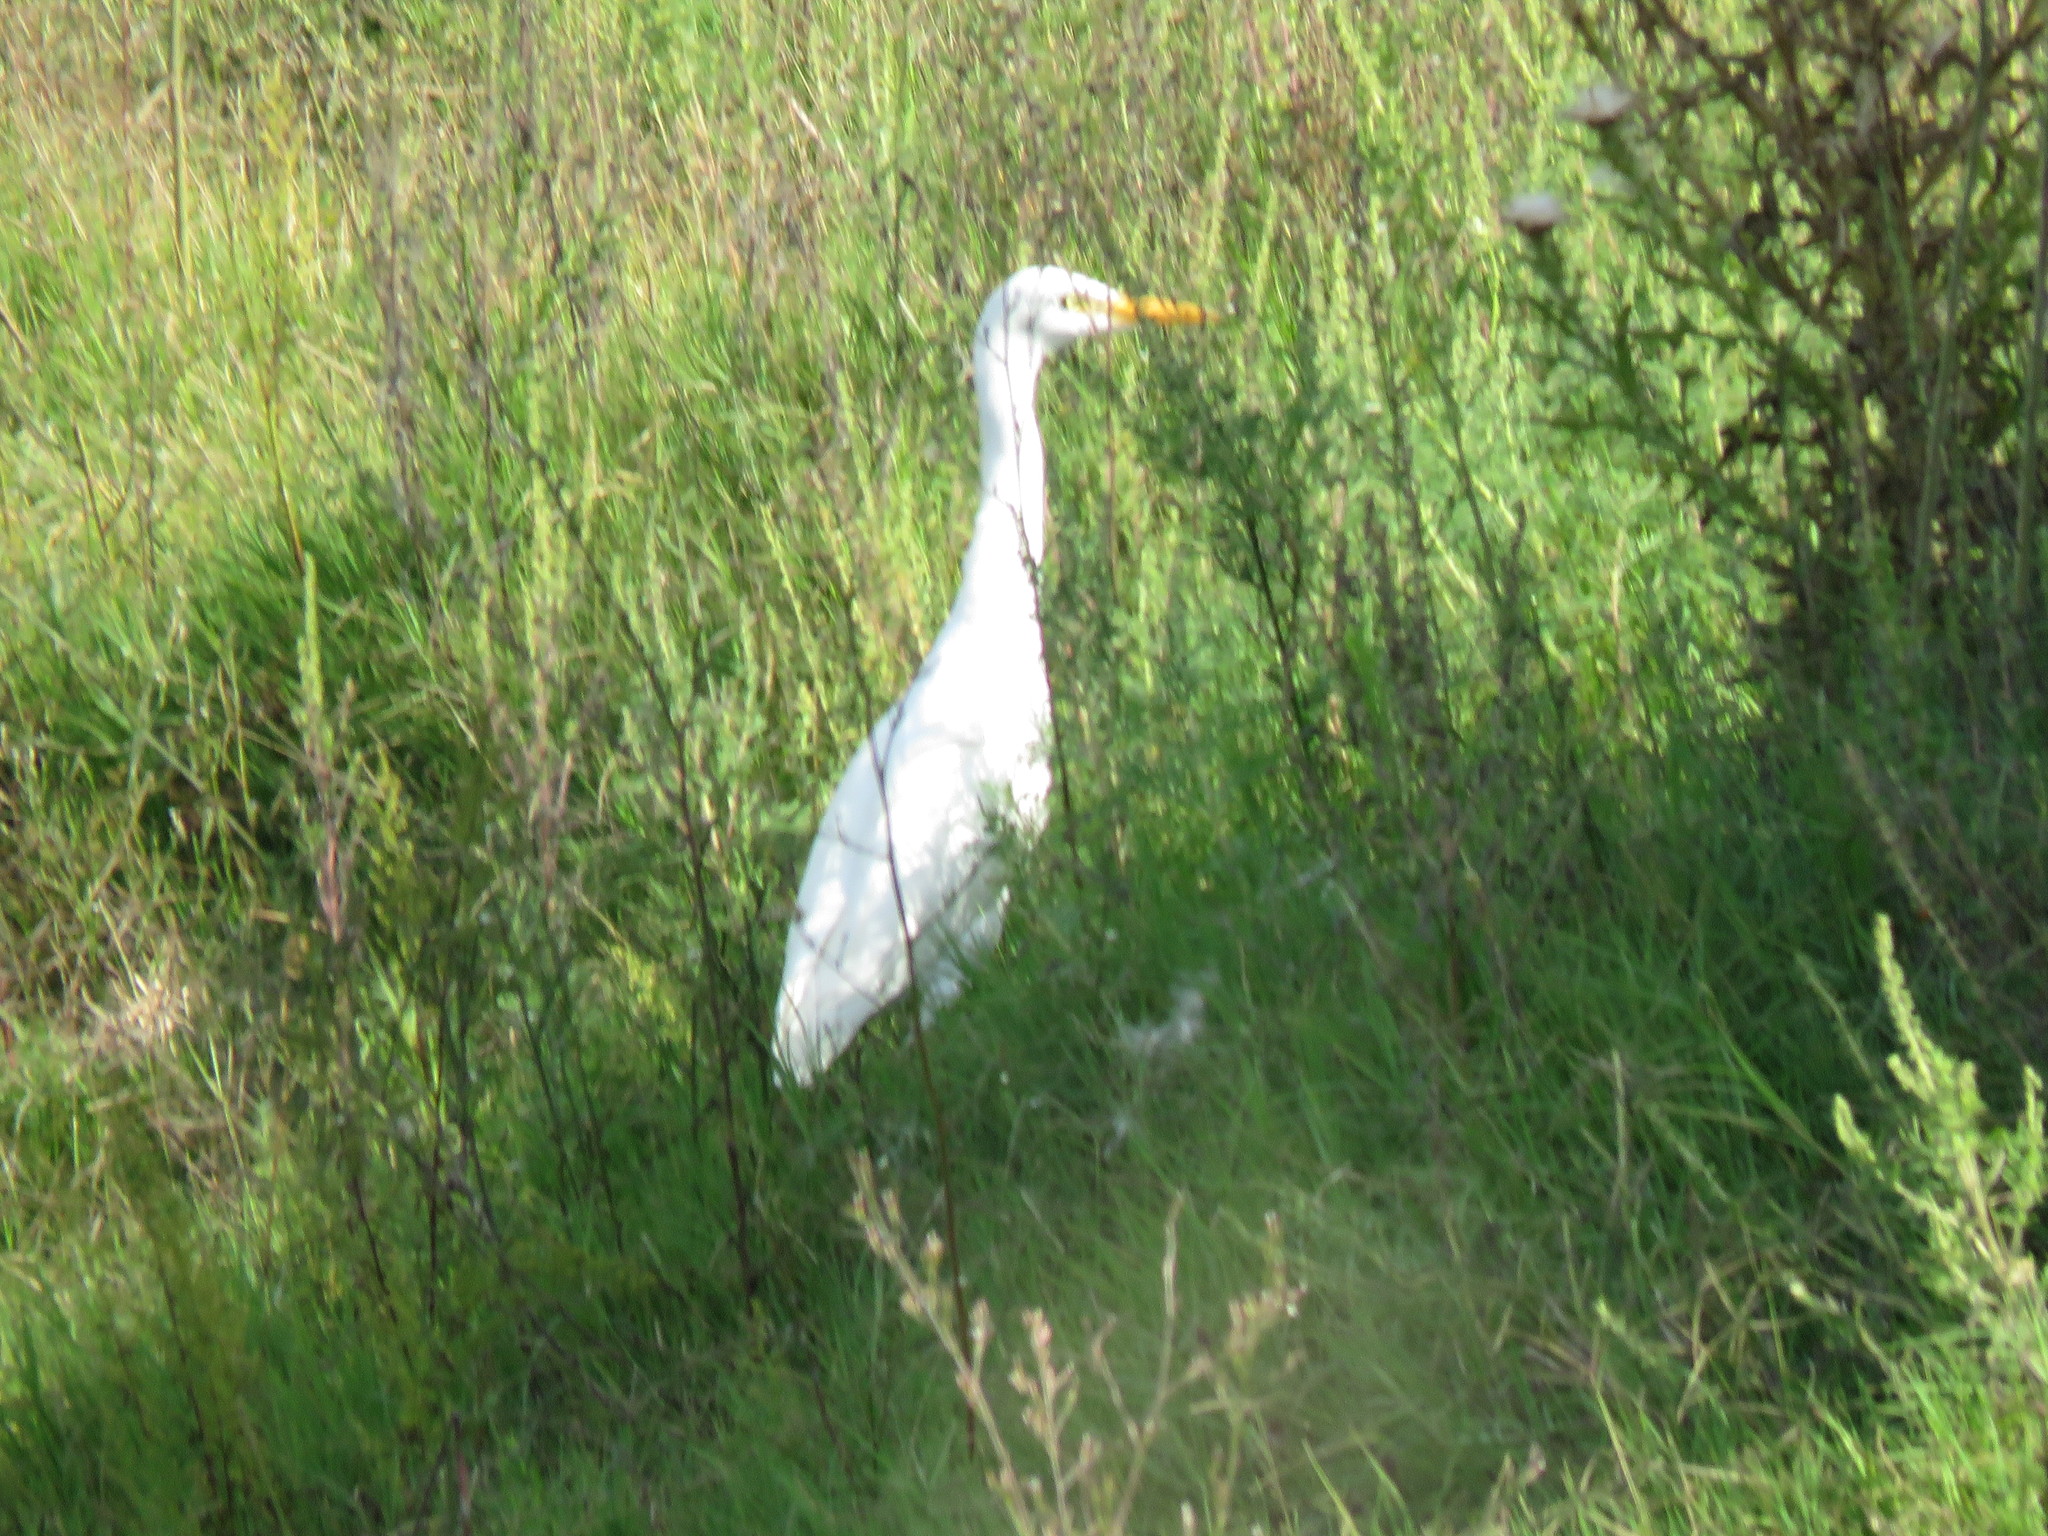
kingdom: Animalia
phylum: Chordata
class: Aves
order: Pelecaniformes
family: Ardeidae
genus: Bubulcus
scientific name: Bubulcus ibis
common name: Cattle egret
